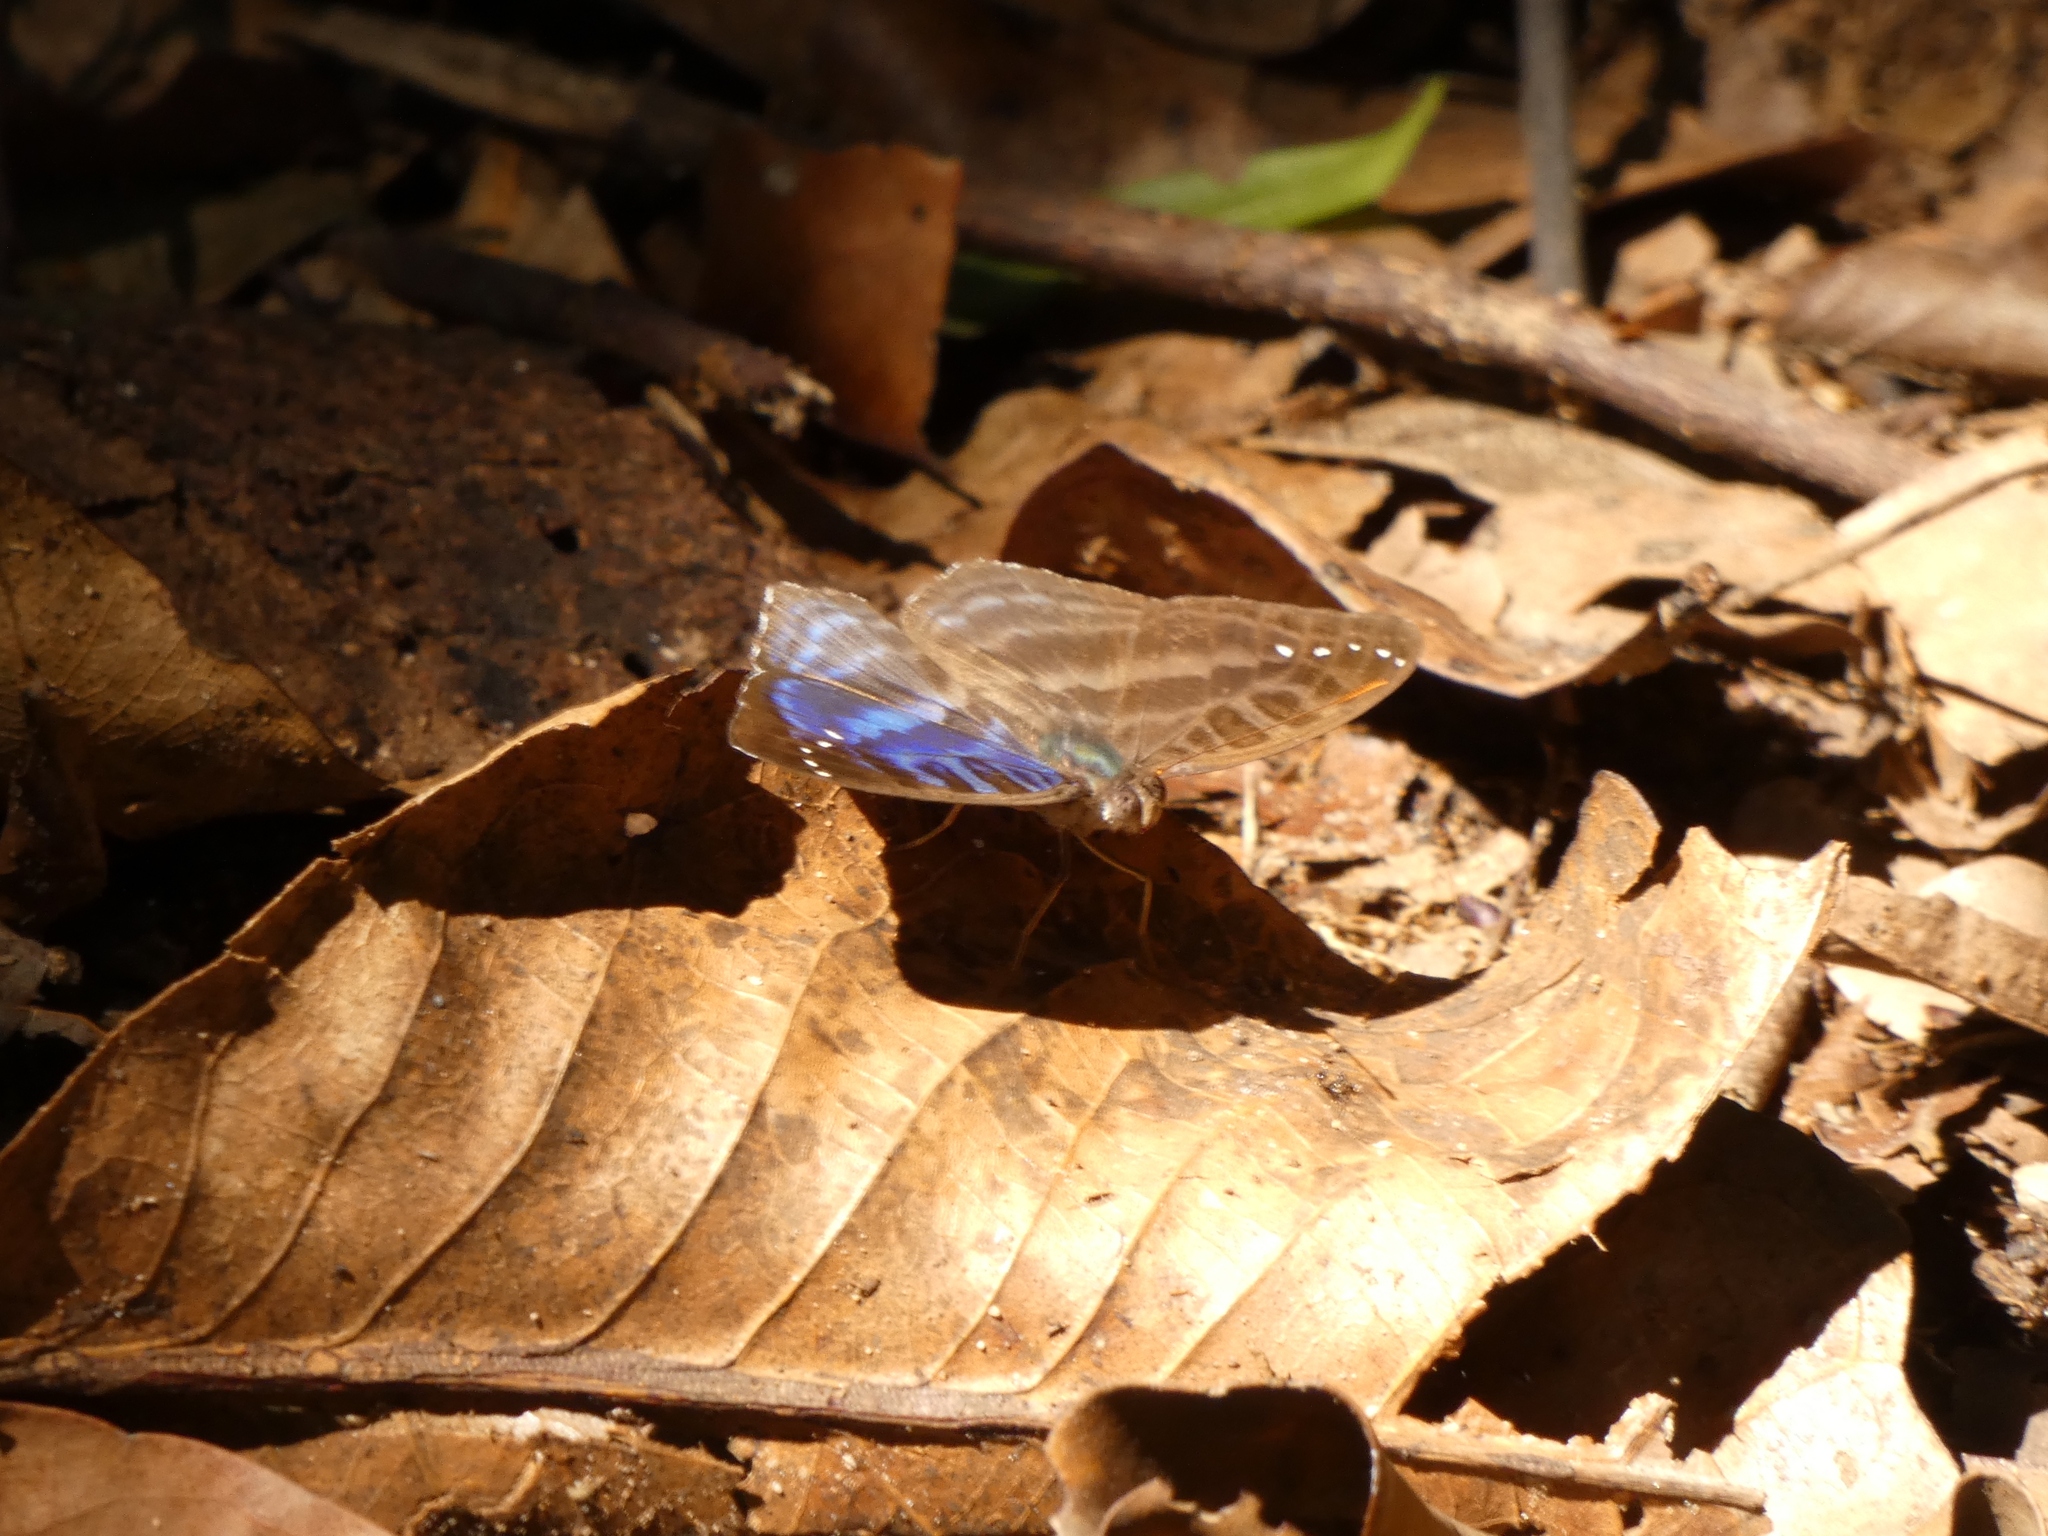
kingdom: Animalia
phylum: Arthropoda
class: Insecta
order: Lepidoptera
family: Nymphalidae
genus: Cynandra
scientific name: Cynandra opis
